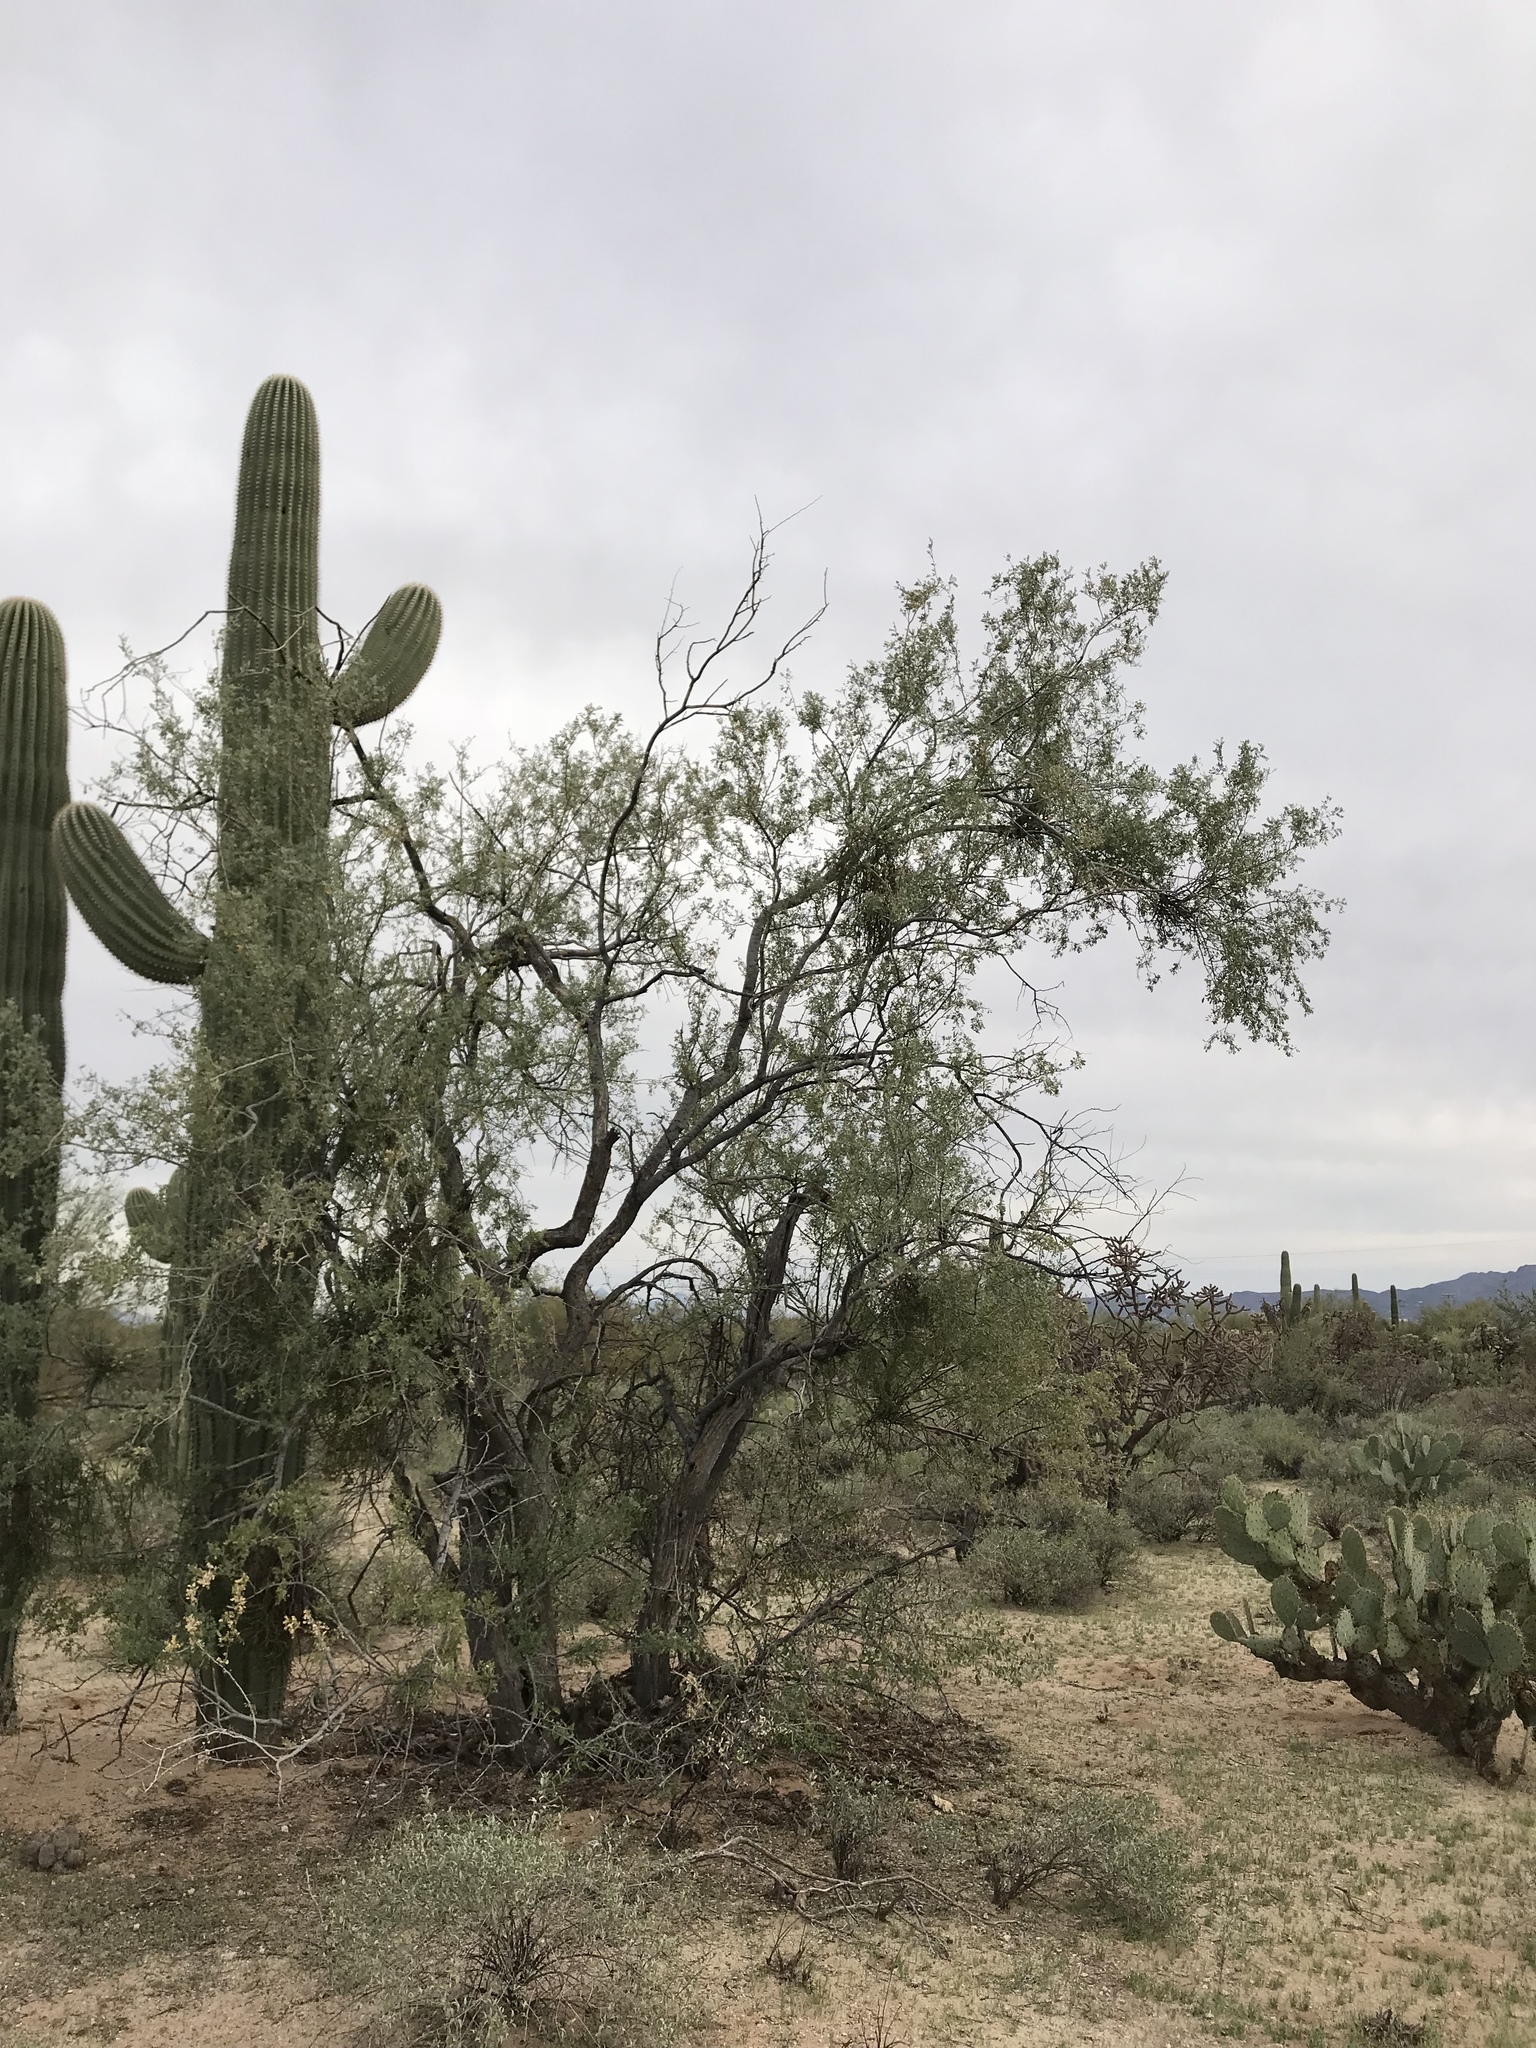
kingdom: Plantae
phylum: Tracheophyta
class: Magnoliopsida
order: Fabales
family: Fabaceae
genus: Olneya
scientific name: Olneya tesota
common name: Desert ironwood
